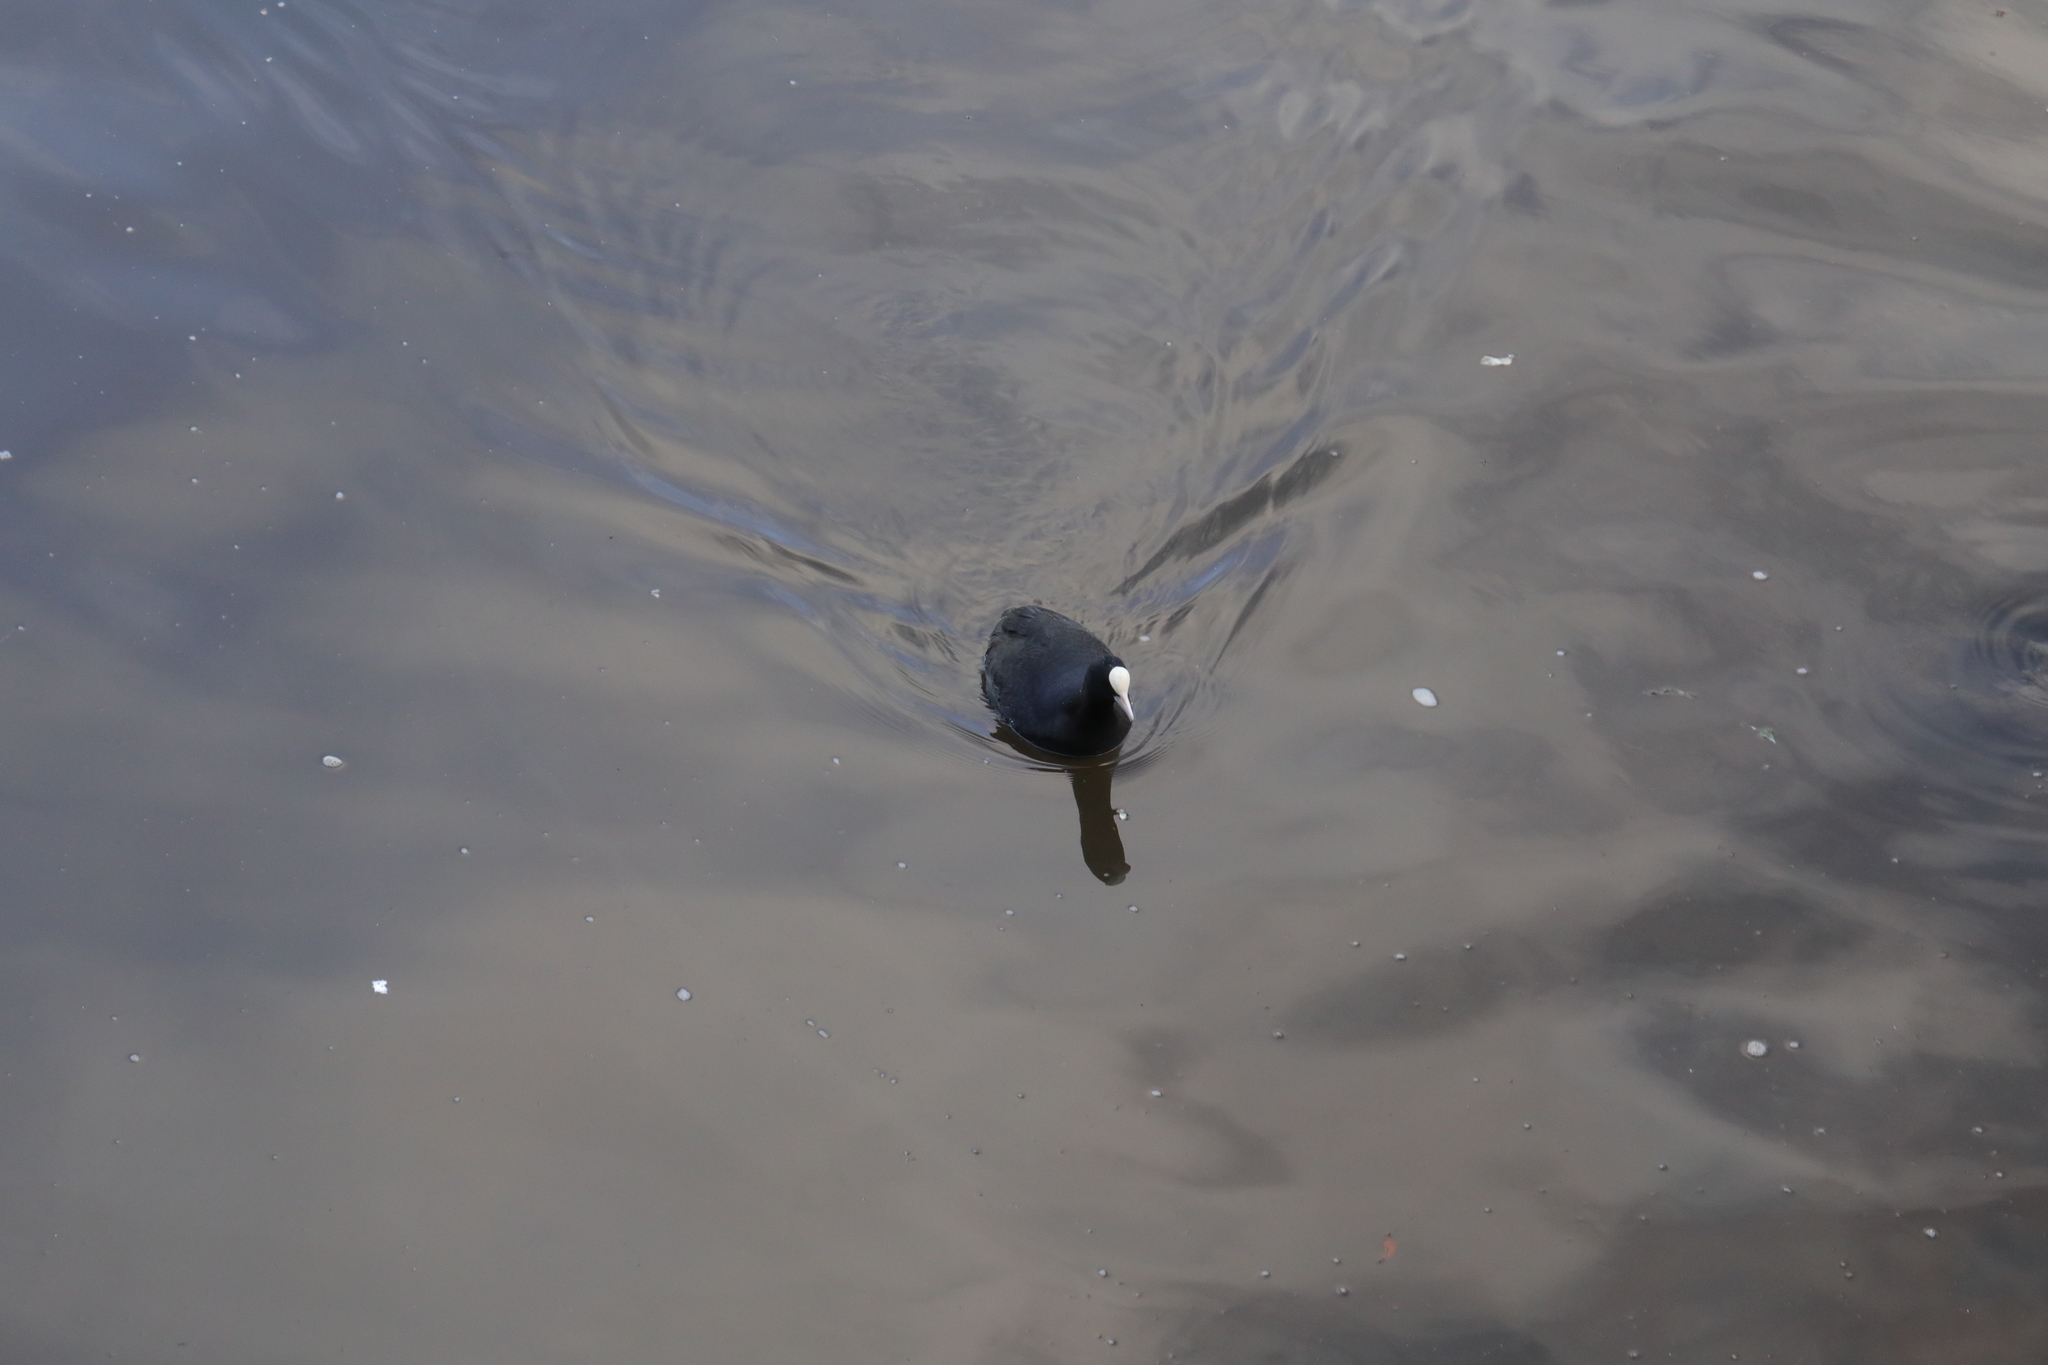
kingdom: Animalia
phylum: Chordata
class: Aves
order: Gruiformes
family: Rallidae
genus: Fulica
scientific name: Fulica atra
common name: Eurasian coot
